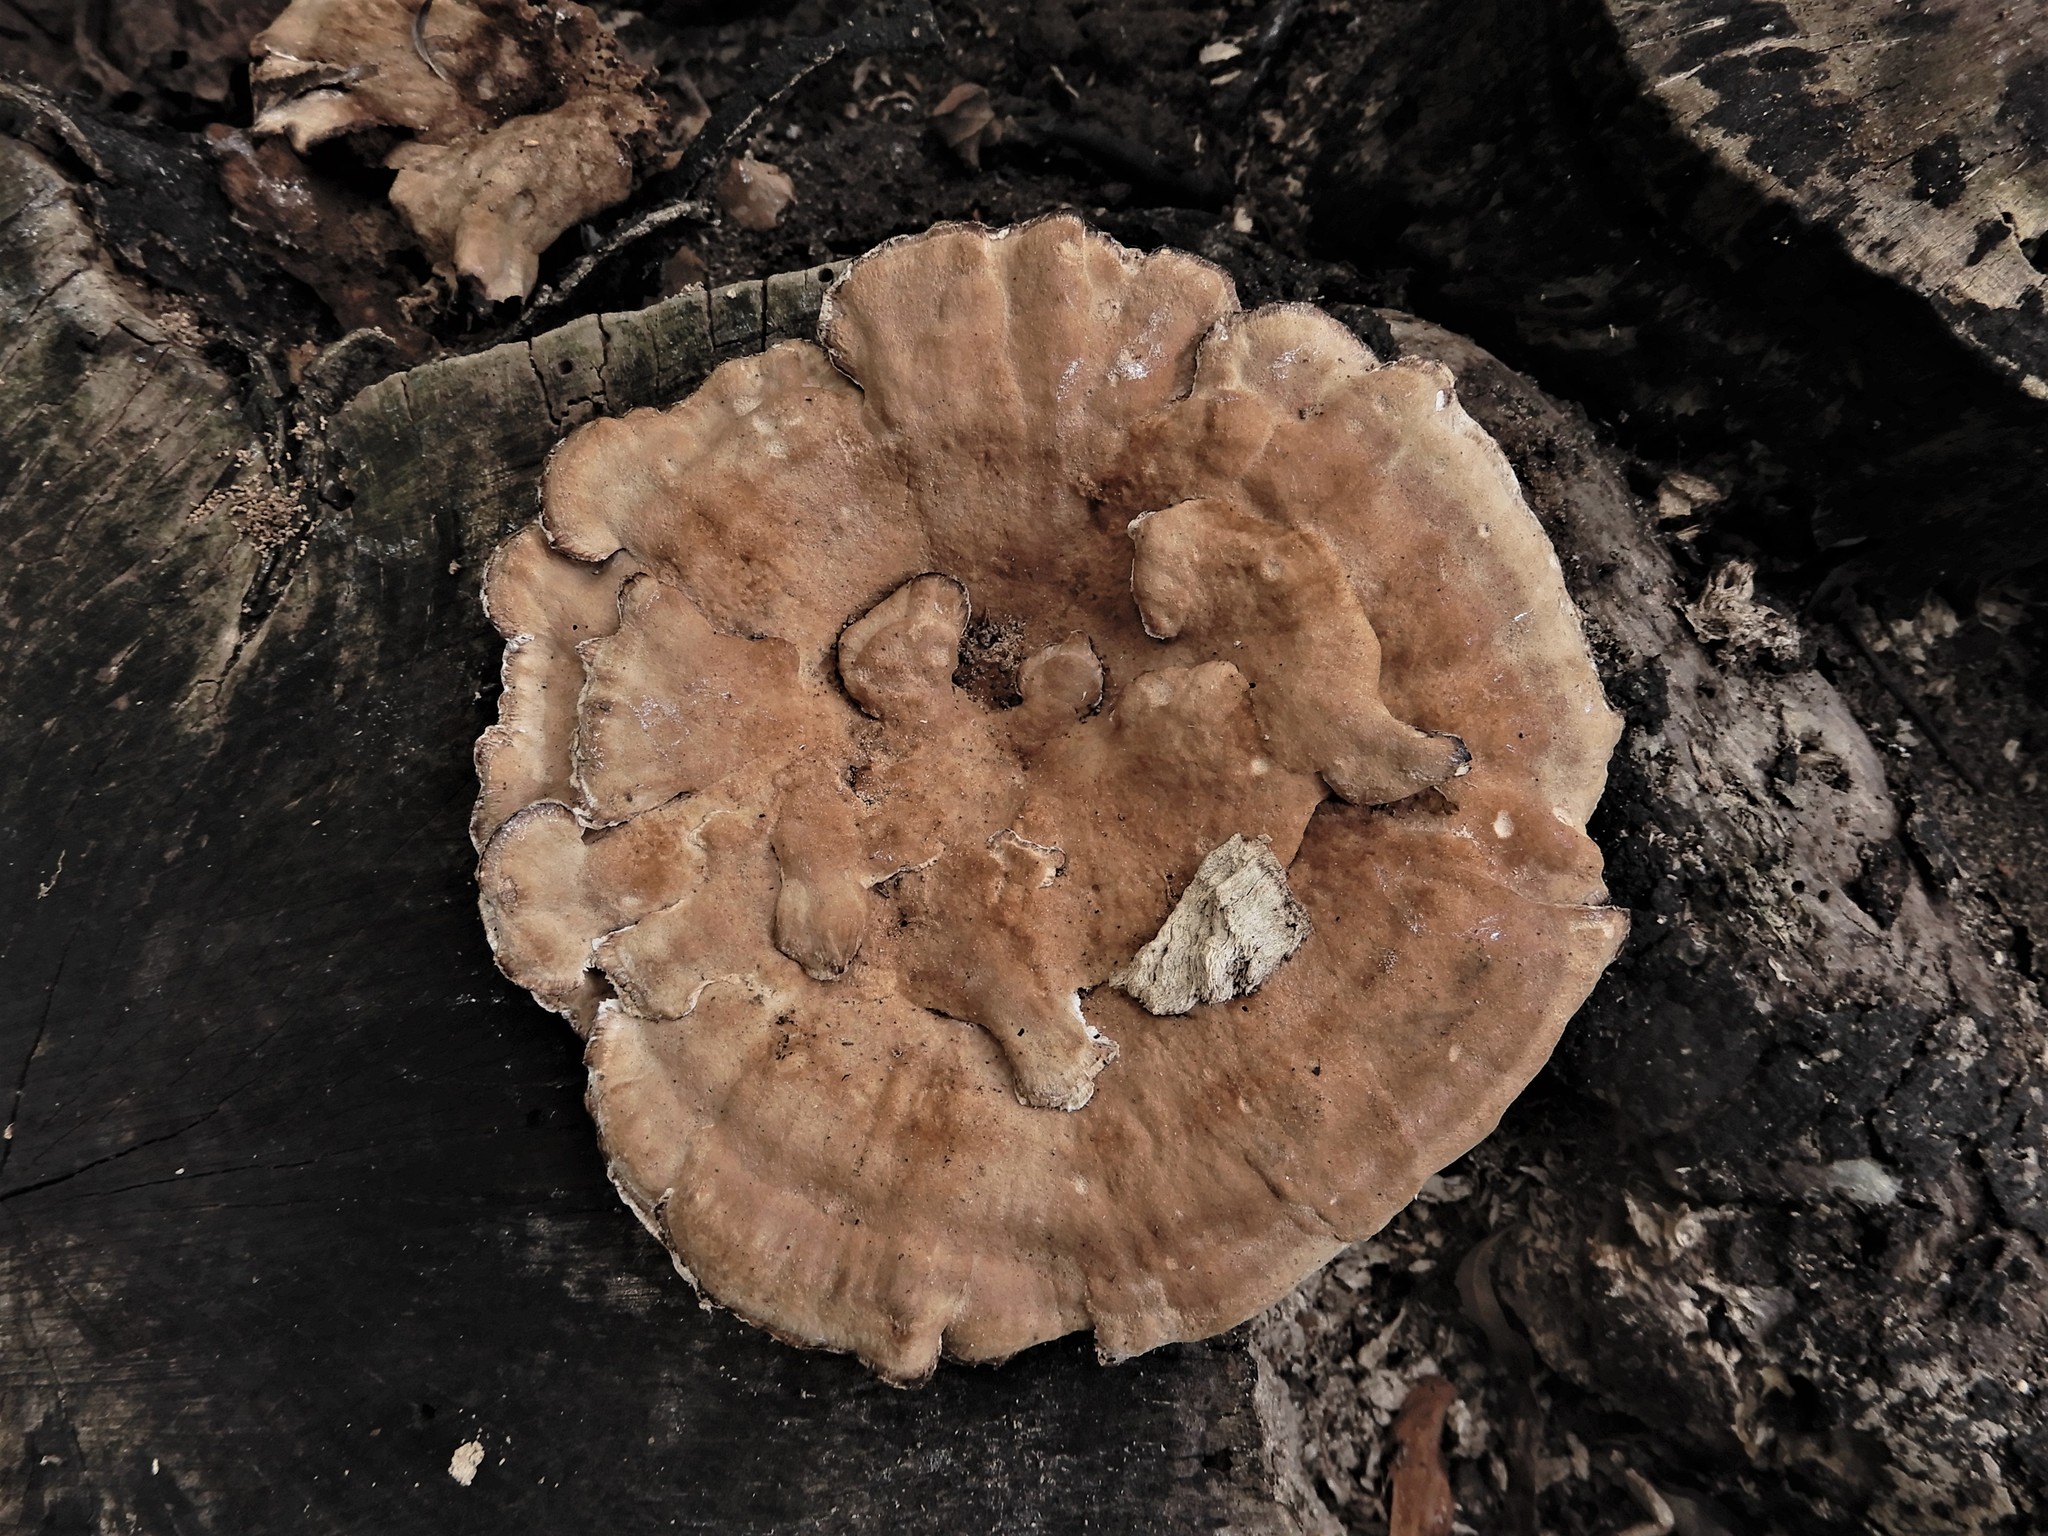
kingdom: Fungi
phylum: Basidiomycota
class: Agaricomycetes
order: Polyporales
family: Podoscyphaceae
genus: Abortiporus
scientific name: Abortiporus biennis
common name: Blushing rosette
